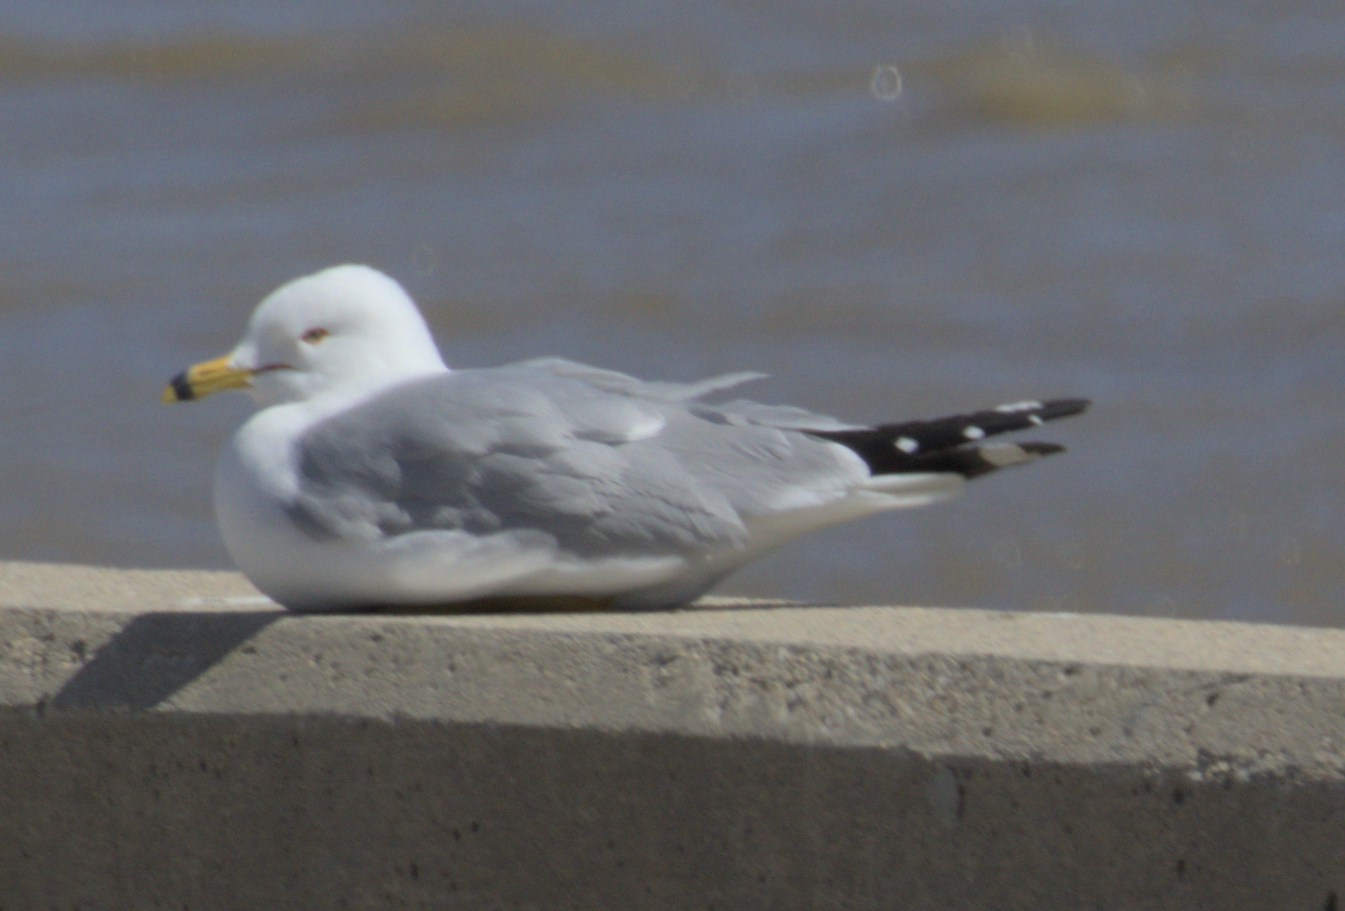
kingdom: Animalia
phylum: Chordata
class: Aves
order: Charadriiformes
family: Laridae
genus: Larus
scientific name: Larus delawarensis
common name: Ring-billed gull
